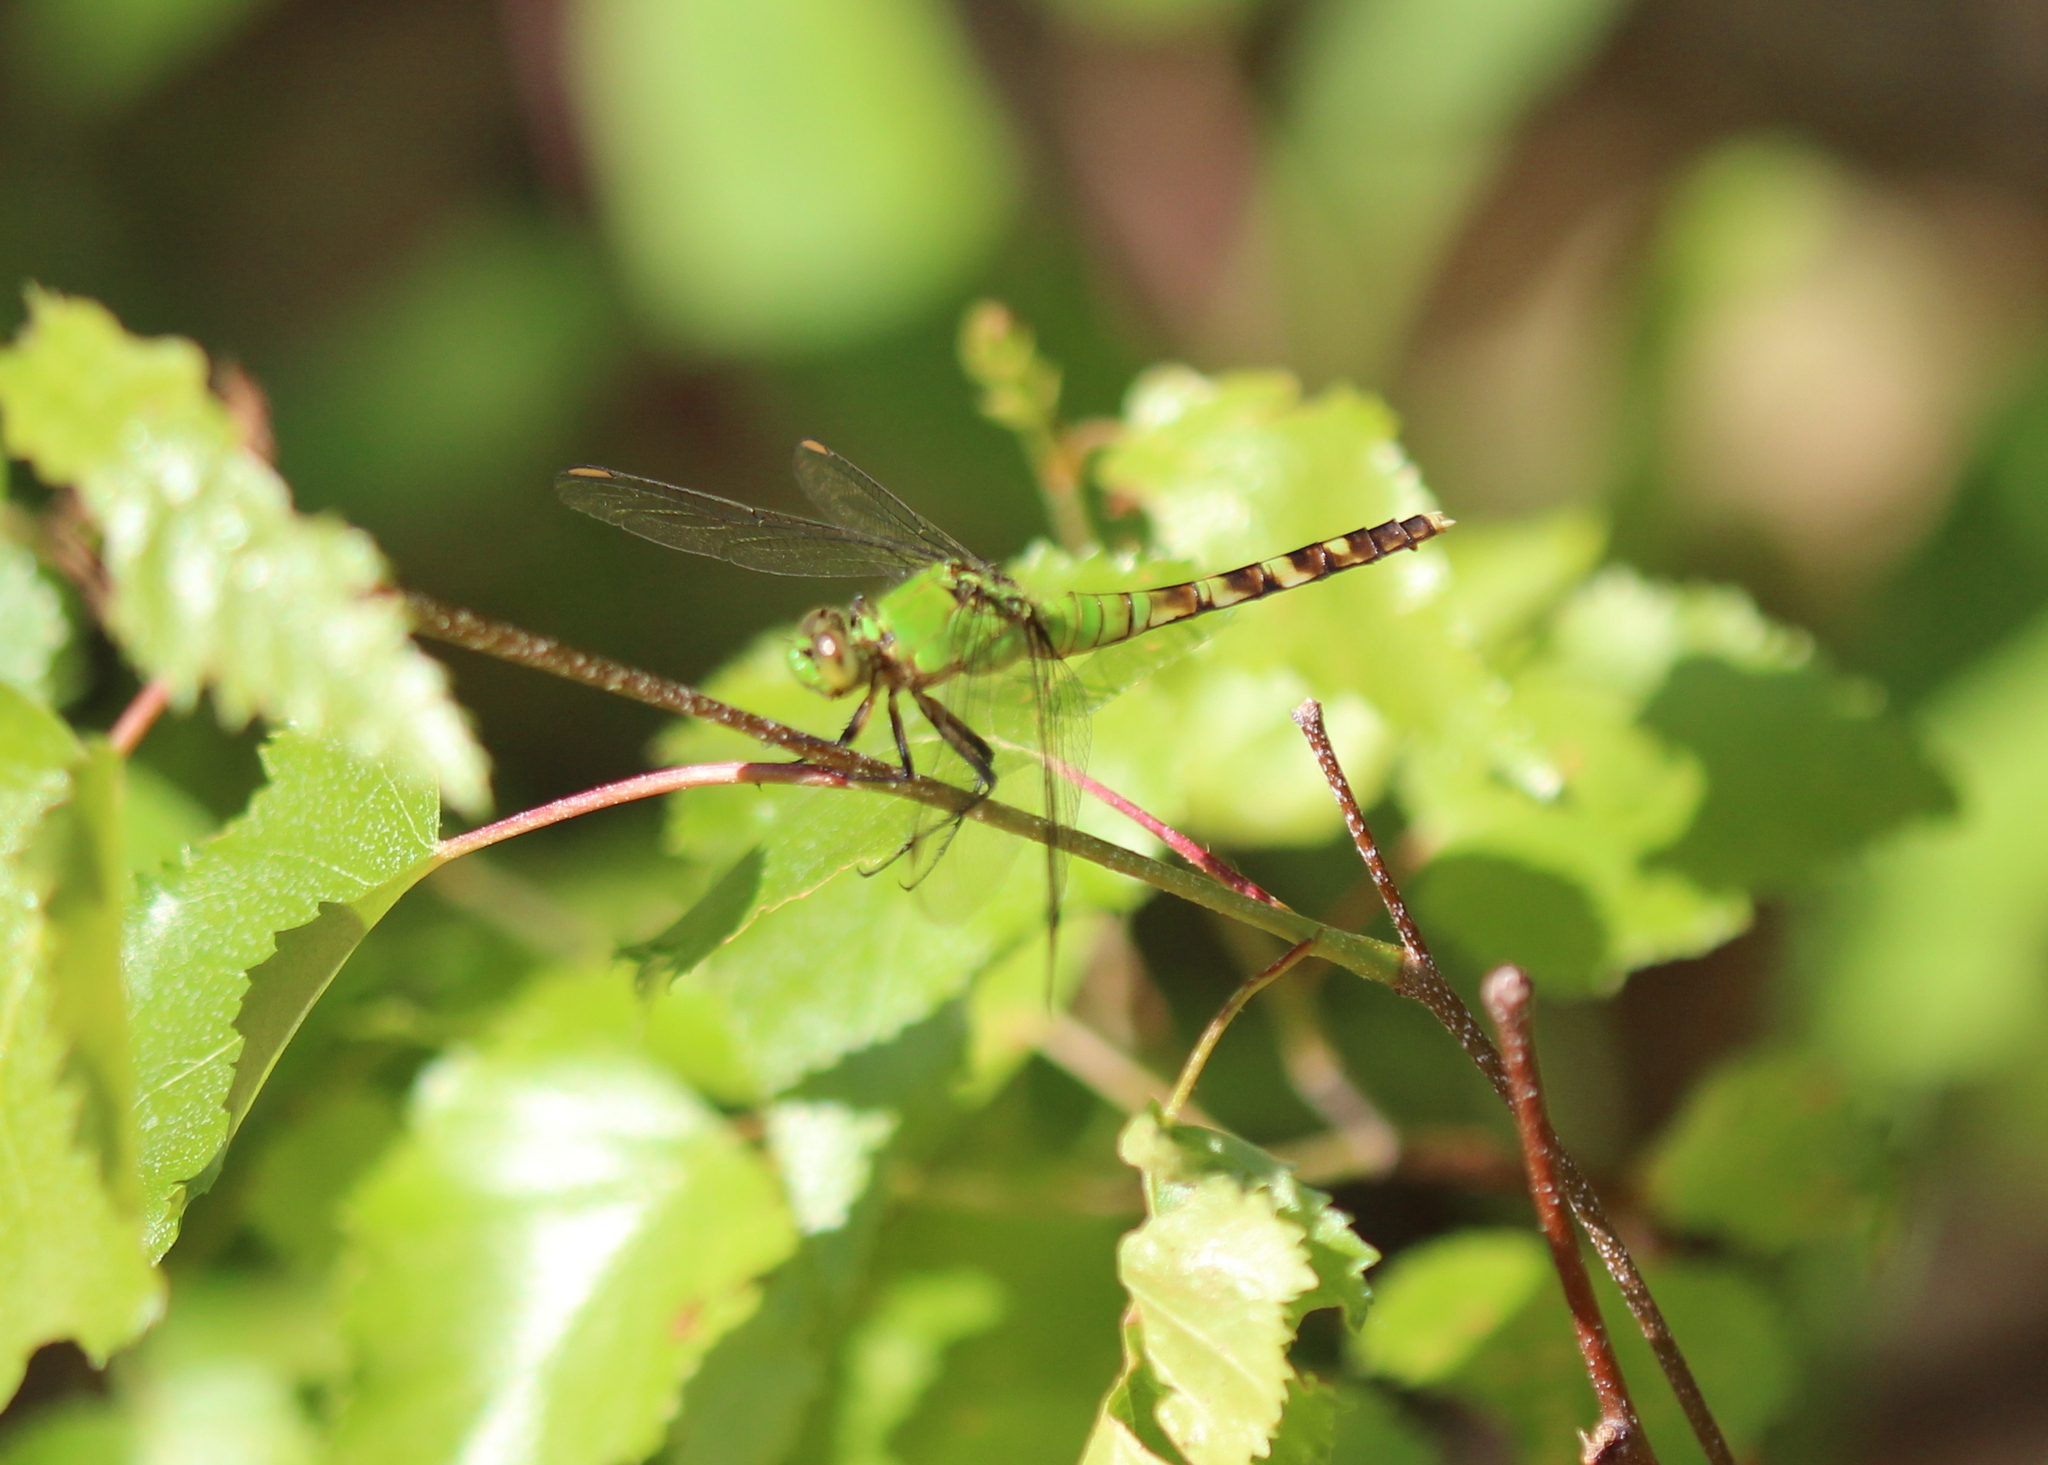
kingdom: Animalia
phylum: Arthropoda
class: Insecta
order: Odonata
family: Libellulidae
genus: Erythemis
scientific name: Erythemis simplicicollis
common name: Eastern pondhawk
